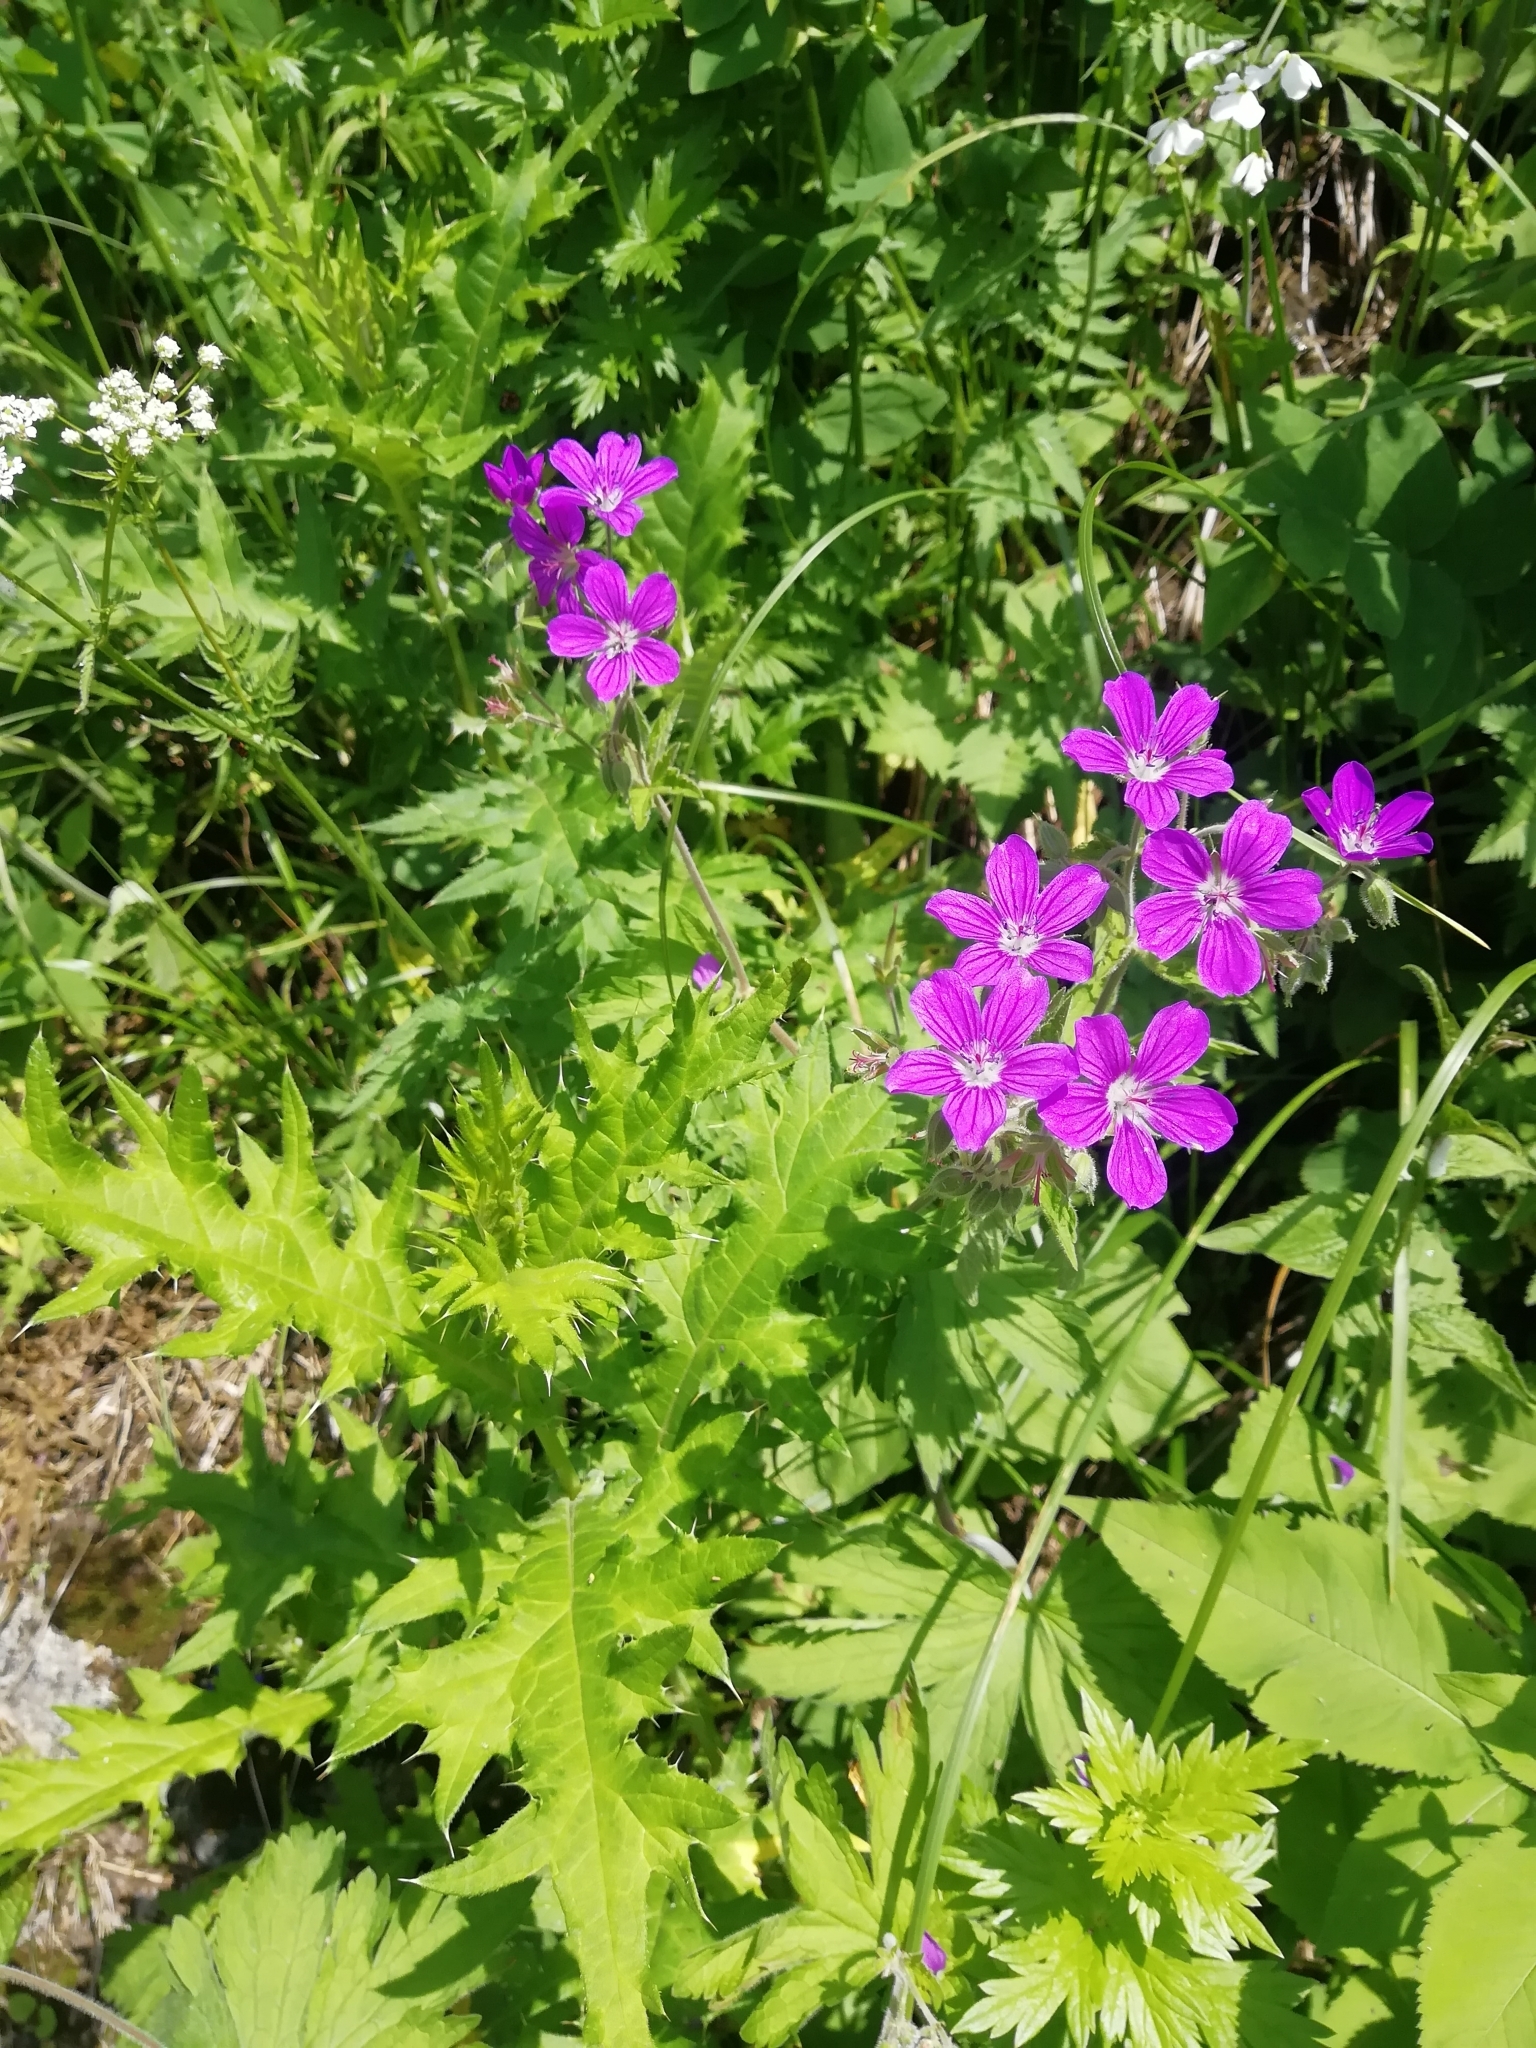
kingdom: Plantae
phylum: Tracheophyta
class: Magnoliopsida
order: Geraniales
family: Geraniaceae
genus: Geranium
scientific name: Geranium sylvaticum
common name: Wood crane's-bill
